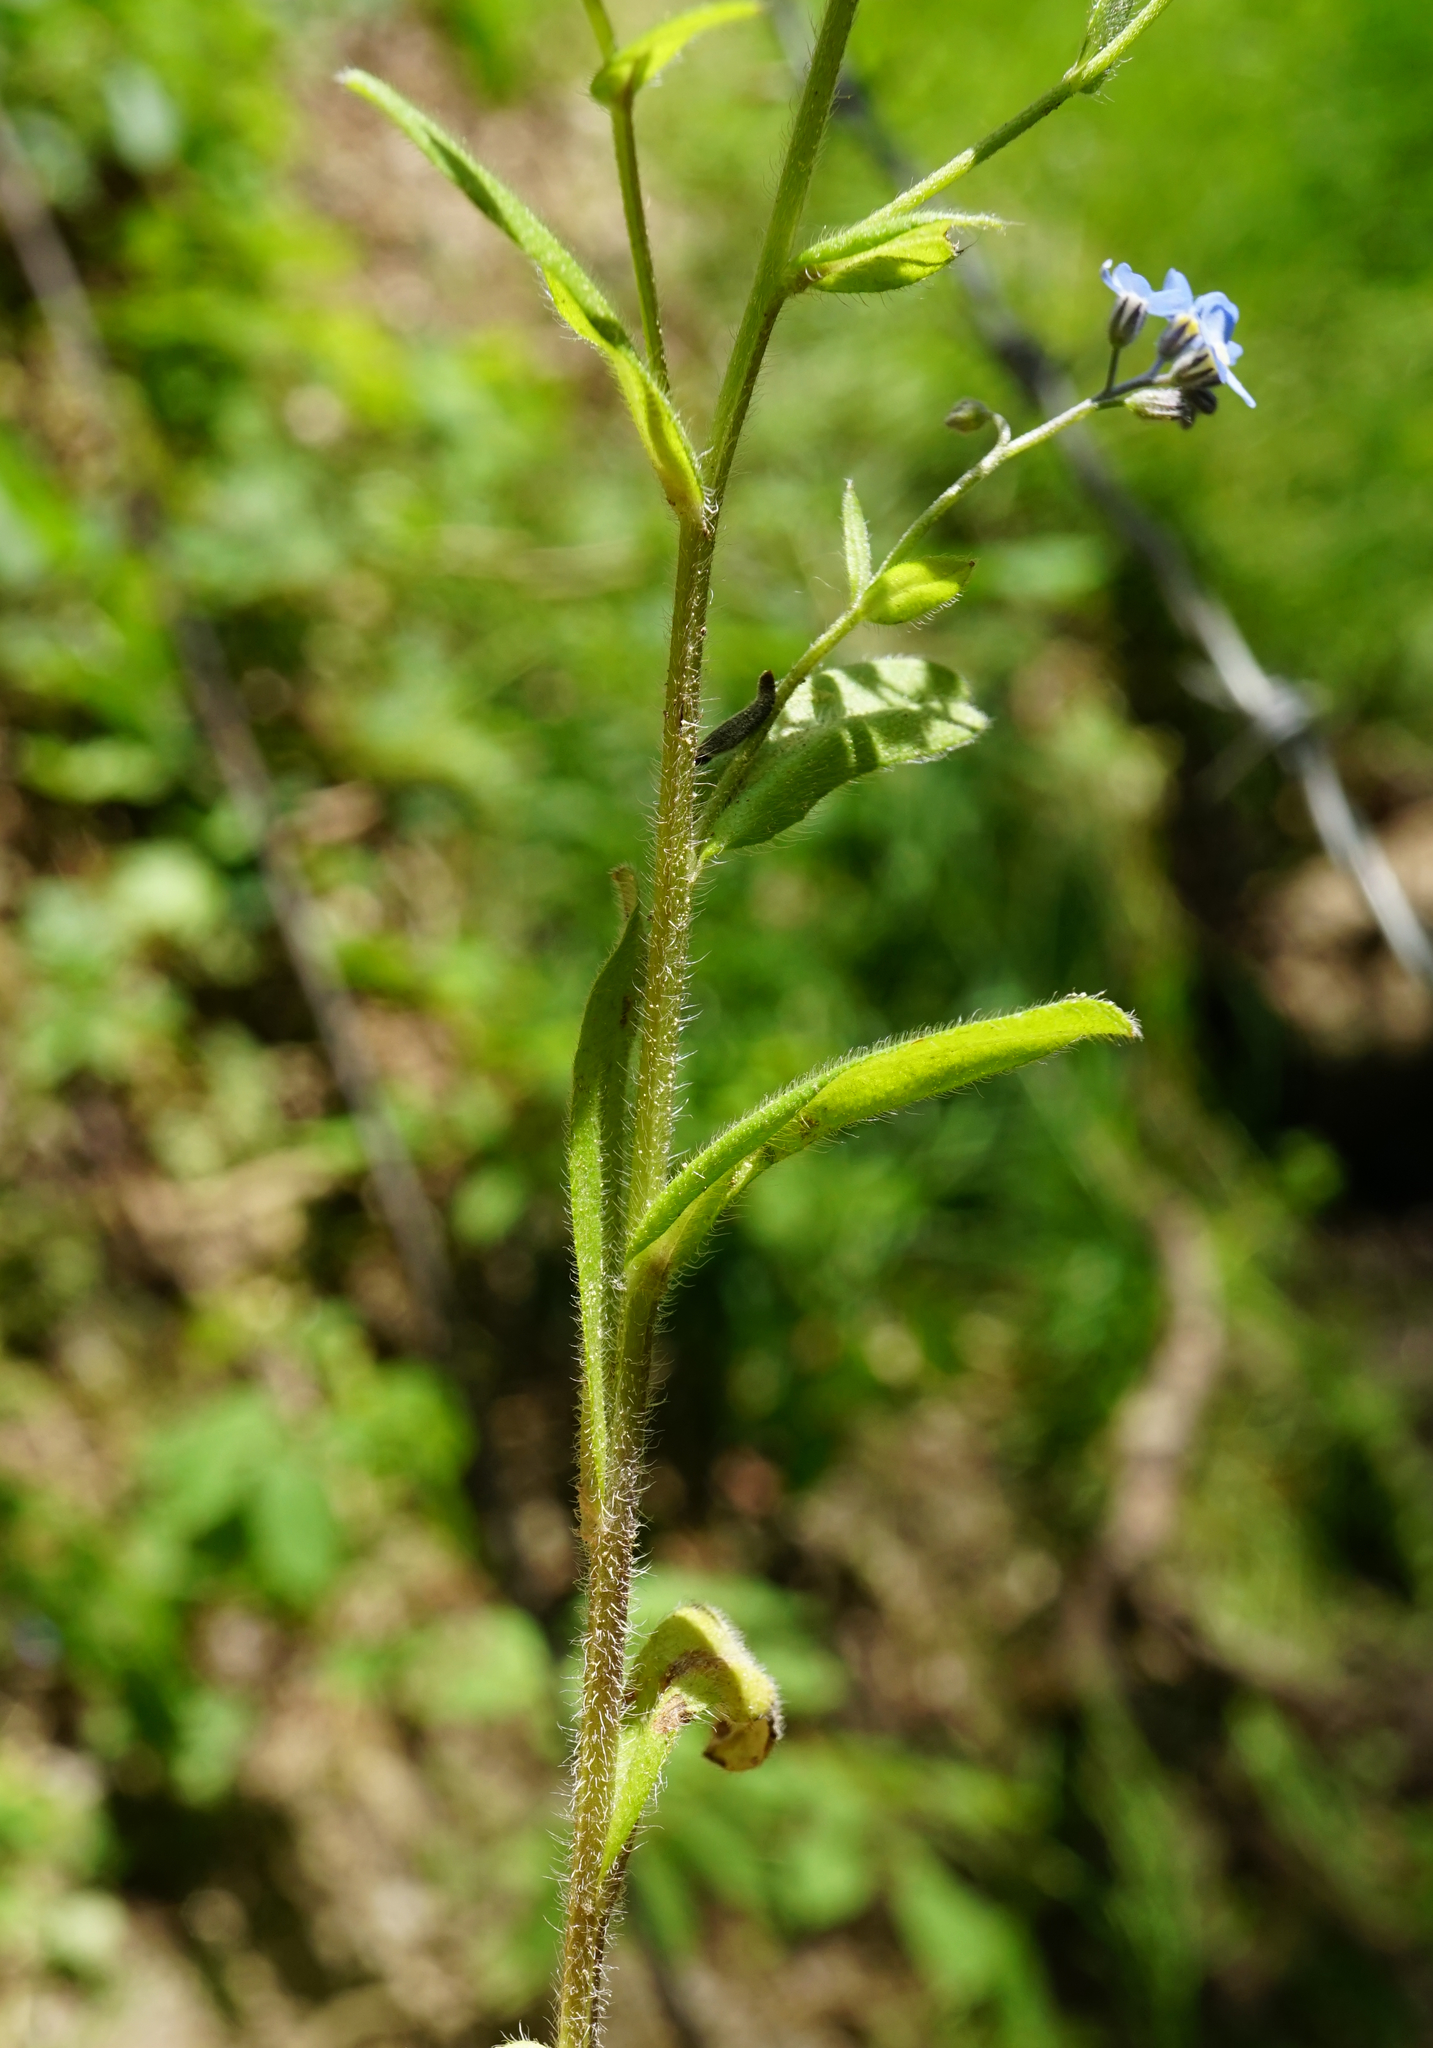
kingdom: Plantae
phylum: Tracheophyta
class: Magnoliopsida
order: Boraginales
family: Boraginaceae
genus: Myosotis
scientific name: Myosotis sylvatica
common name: Wood forget-me-not
